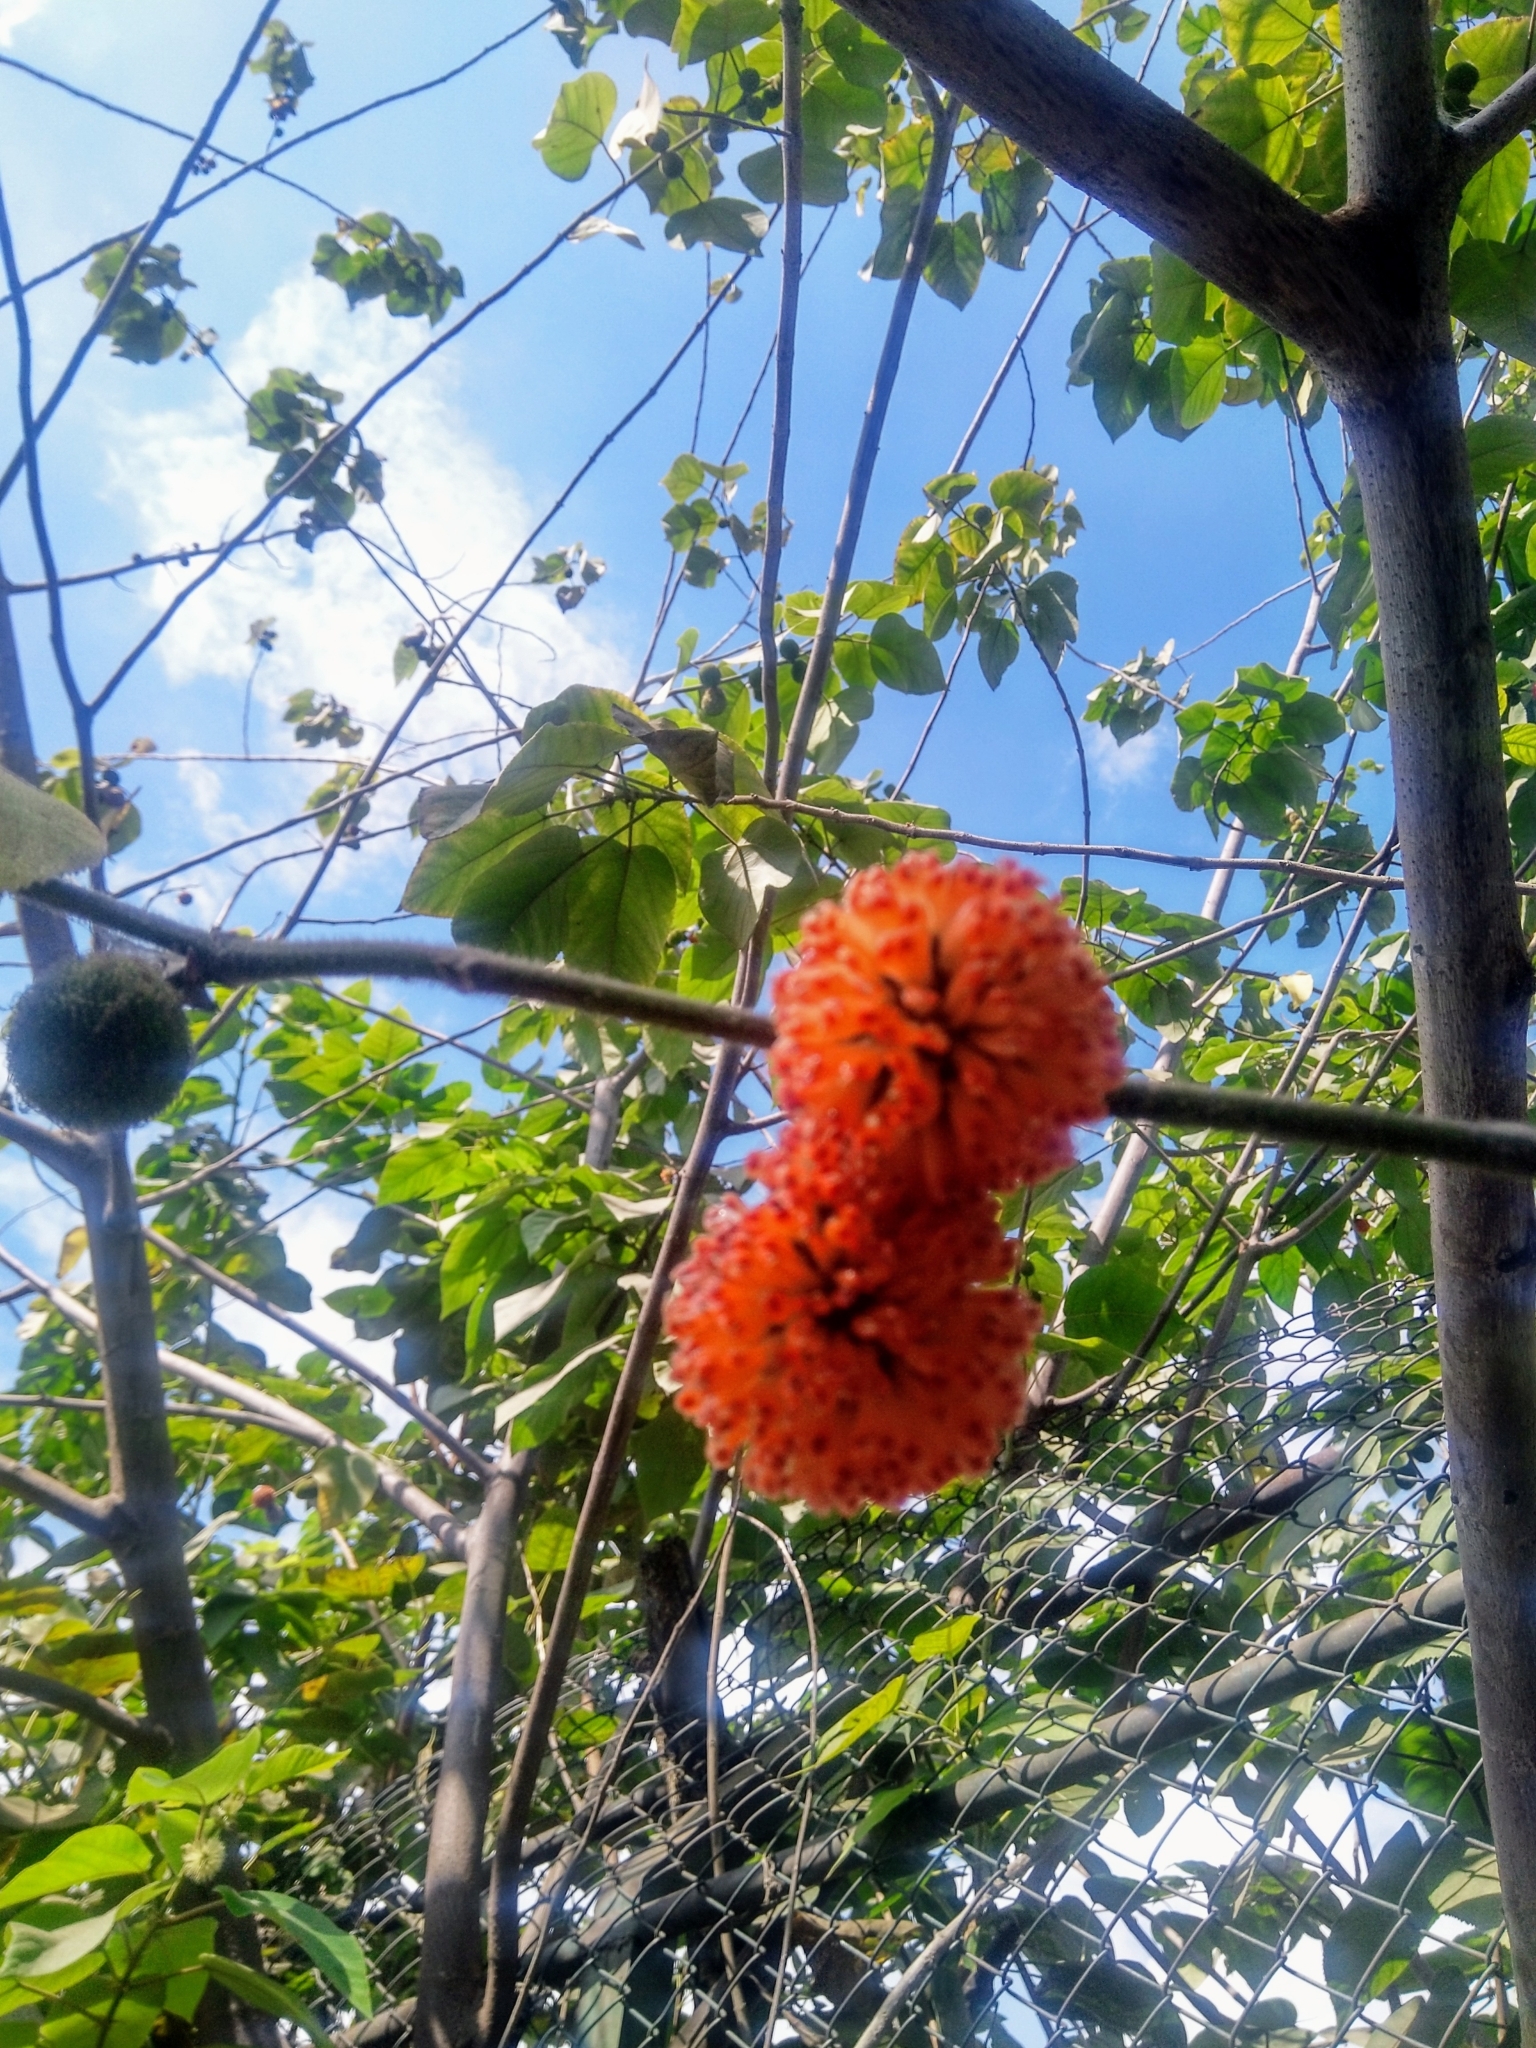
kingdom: Plantae
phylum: Tracheophyta
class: Magnoliopsida
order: Rosales
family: Moraceae
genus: Broussonetia
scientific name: Broussonetia papyrifera
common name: Paper mulberry
